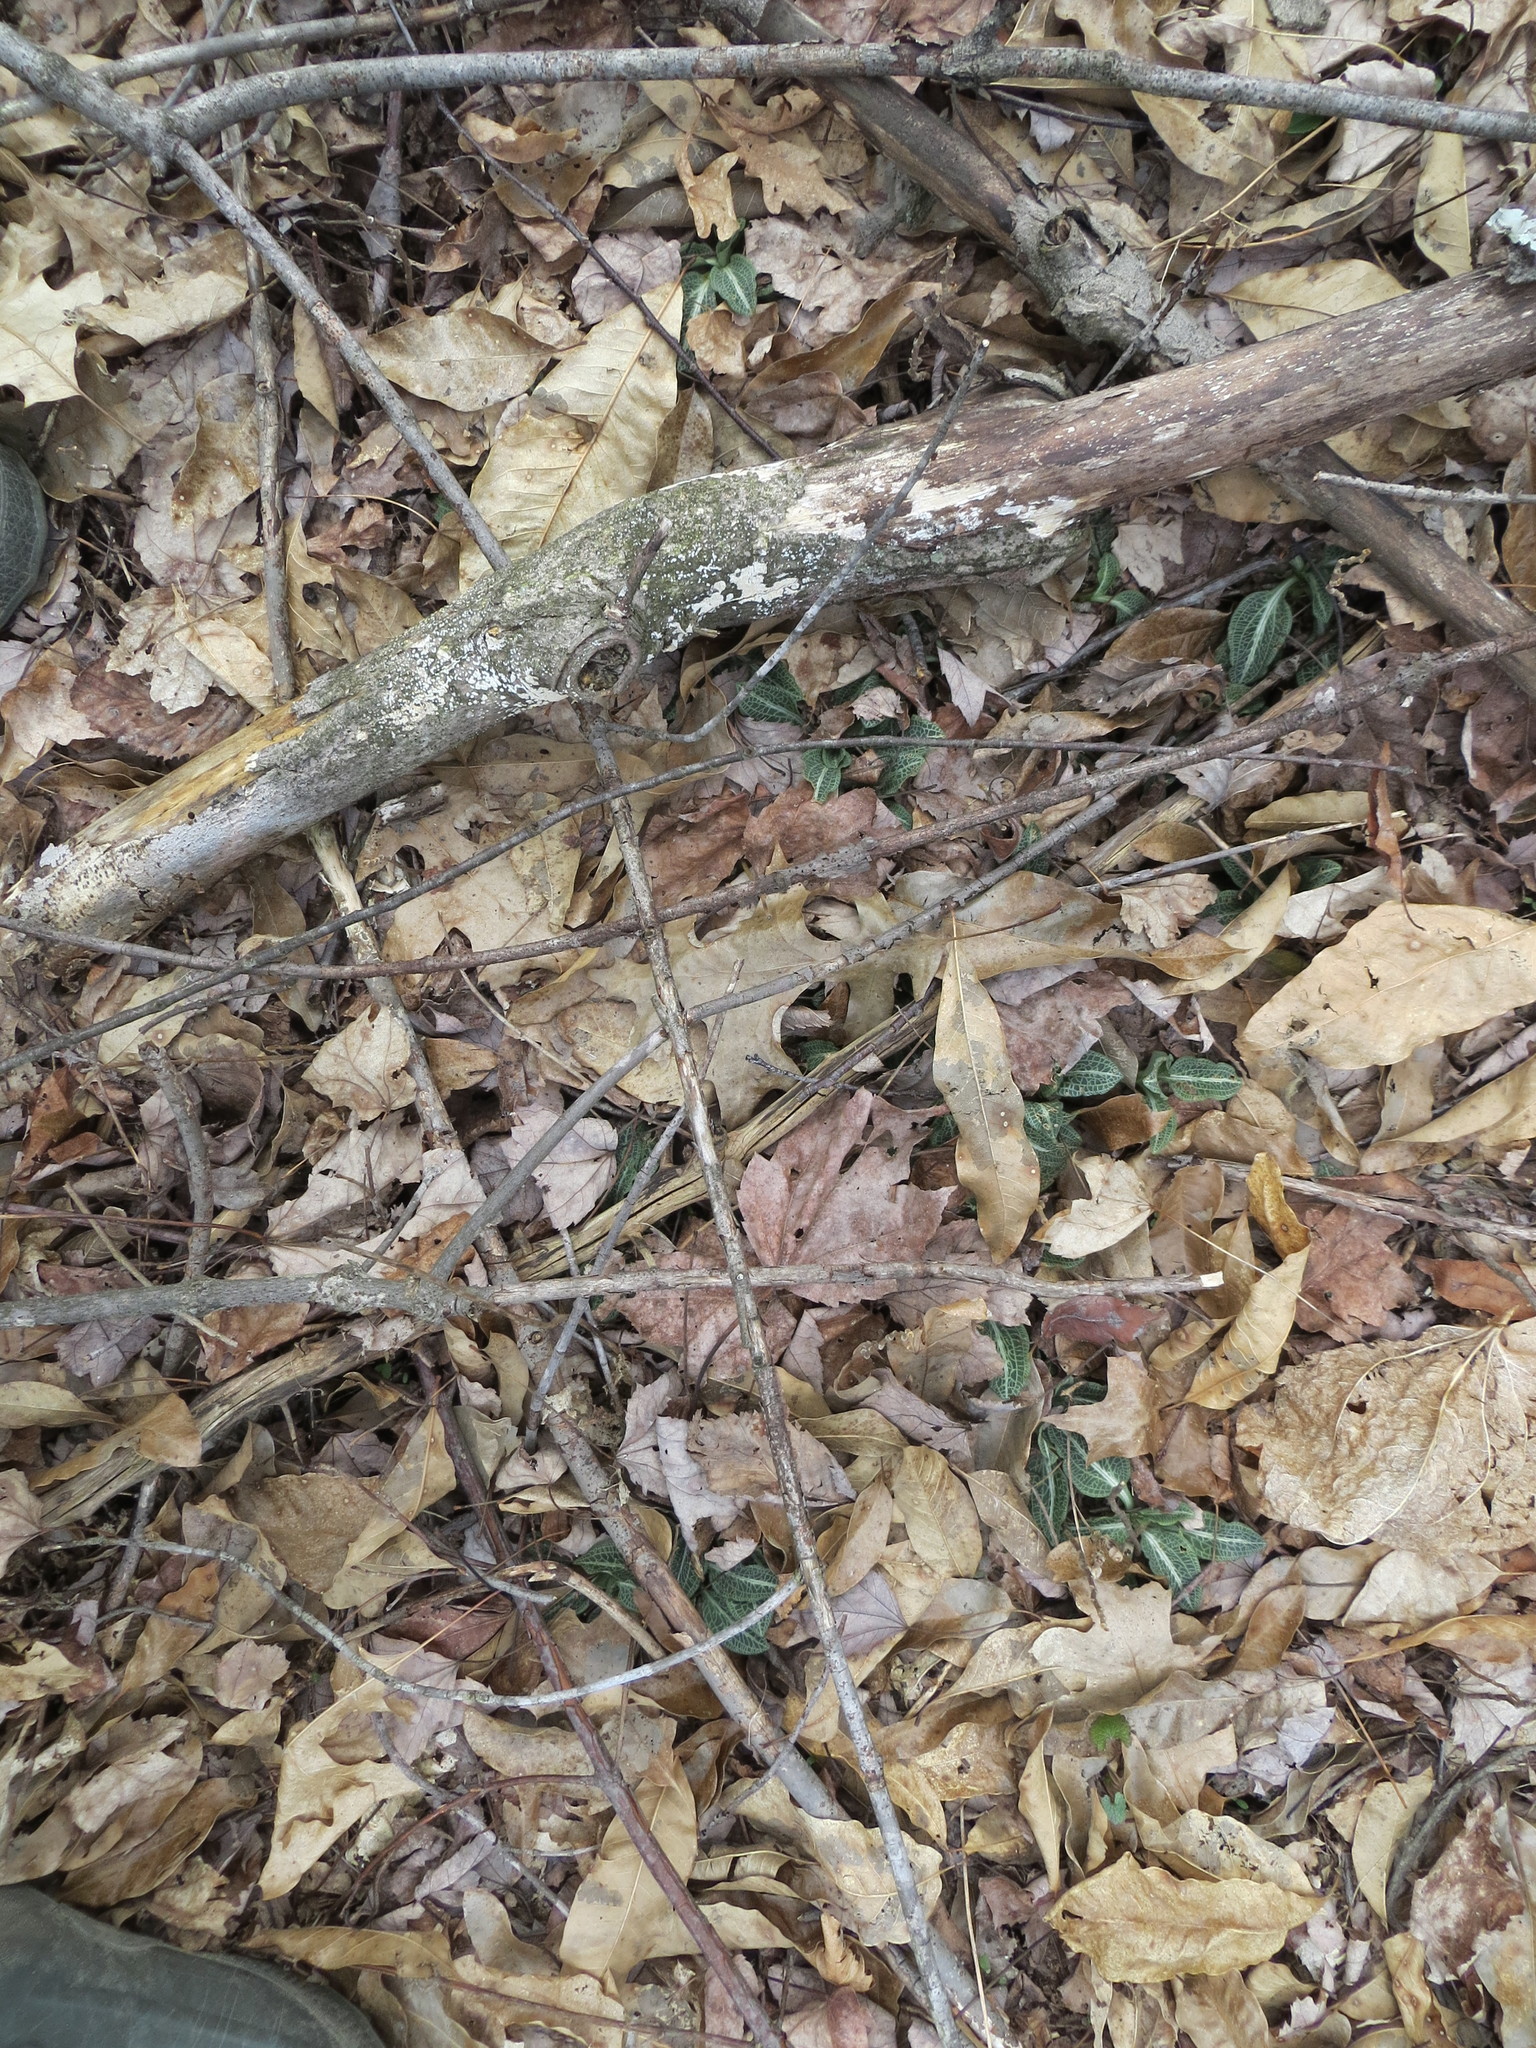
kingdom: Plantae
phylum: Tracheophyta
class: Liliopsida
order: Asparagales
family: Orchidaceae
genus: Goodyera
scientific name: Goodyera pubescens
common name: Downy rattlesnake-plantain
